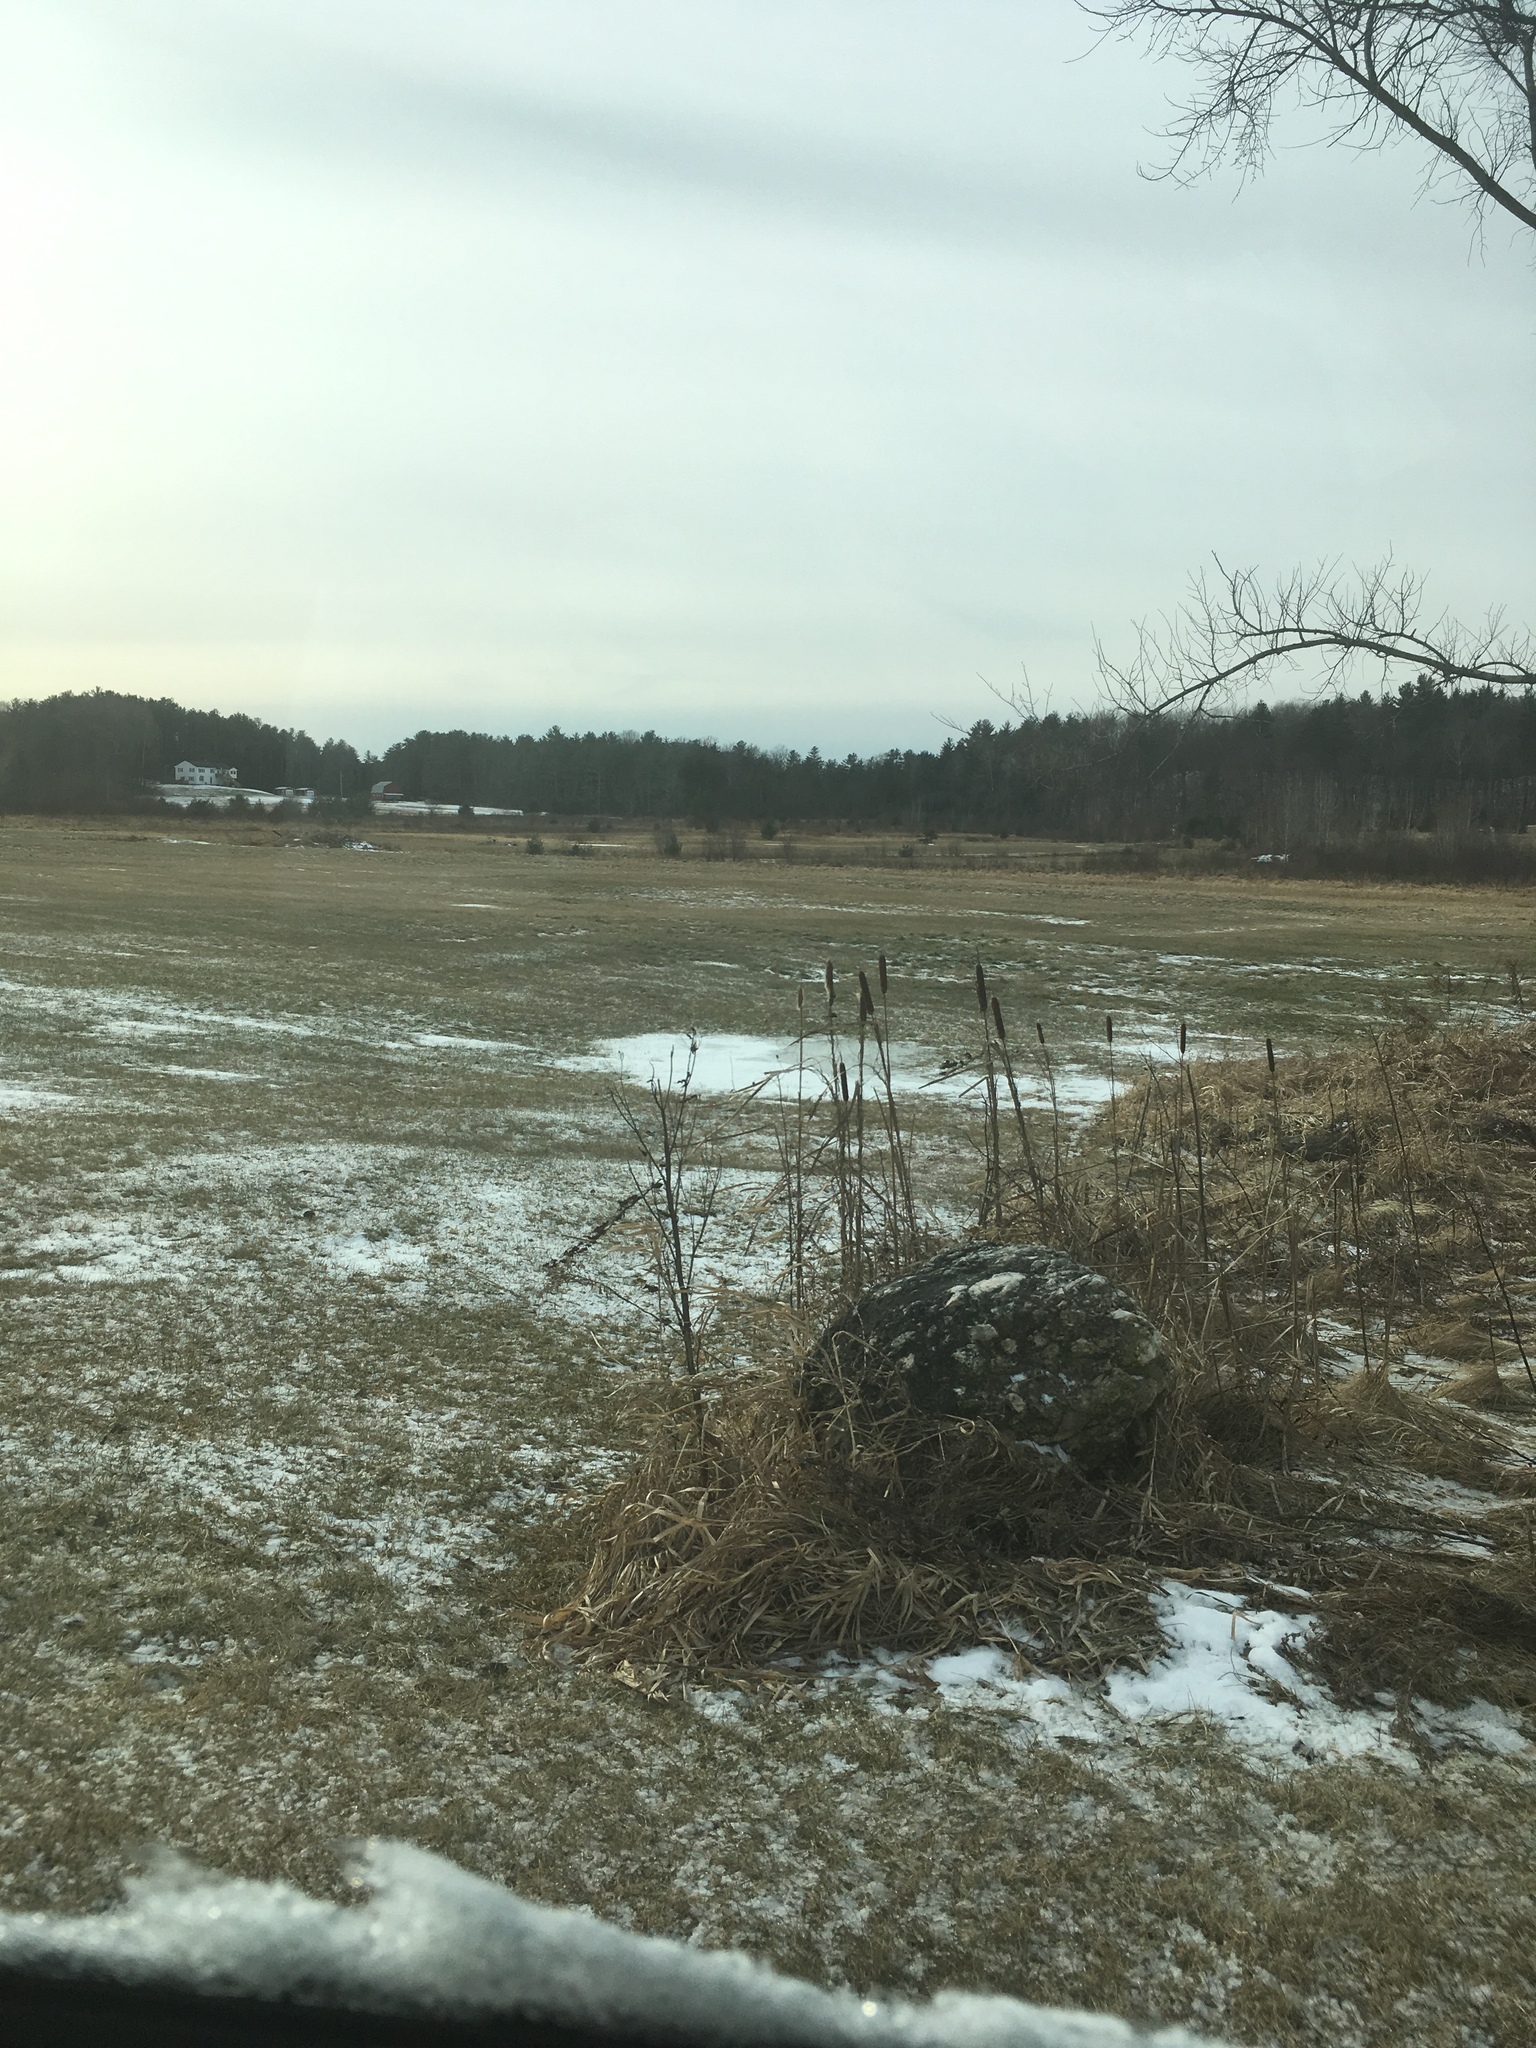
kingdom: Plantae
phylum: Tracheophyta
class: Liliopsida
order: Poales
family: Typhaceae
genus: Typha
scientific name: Typha
